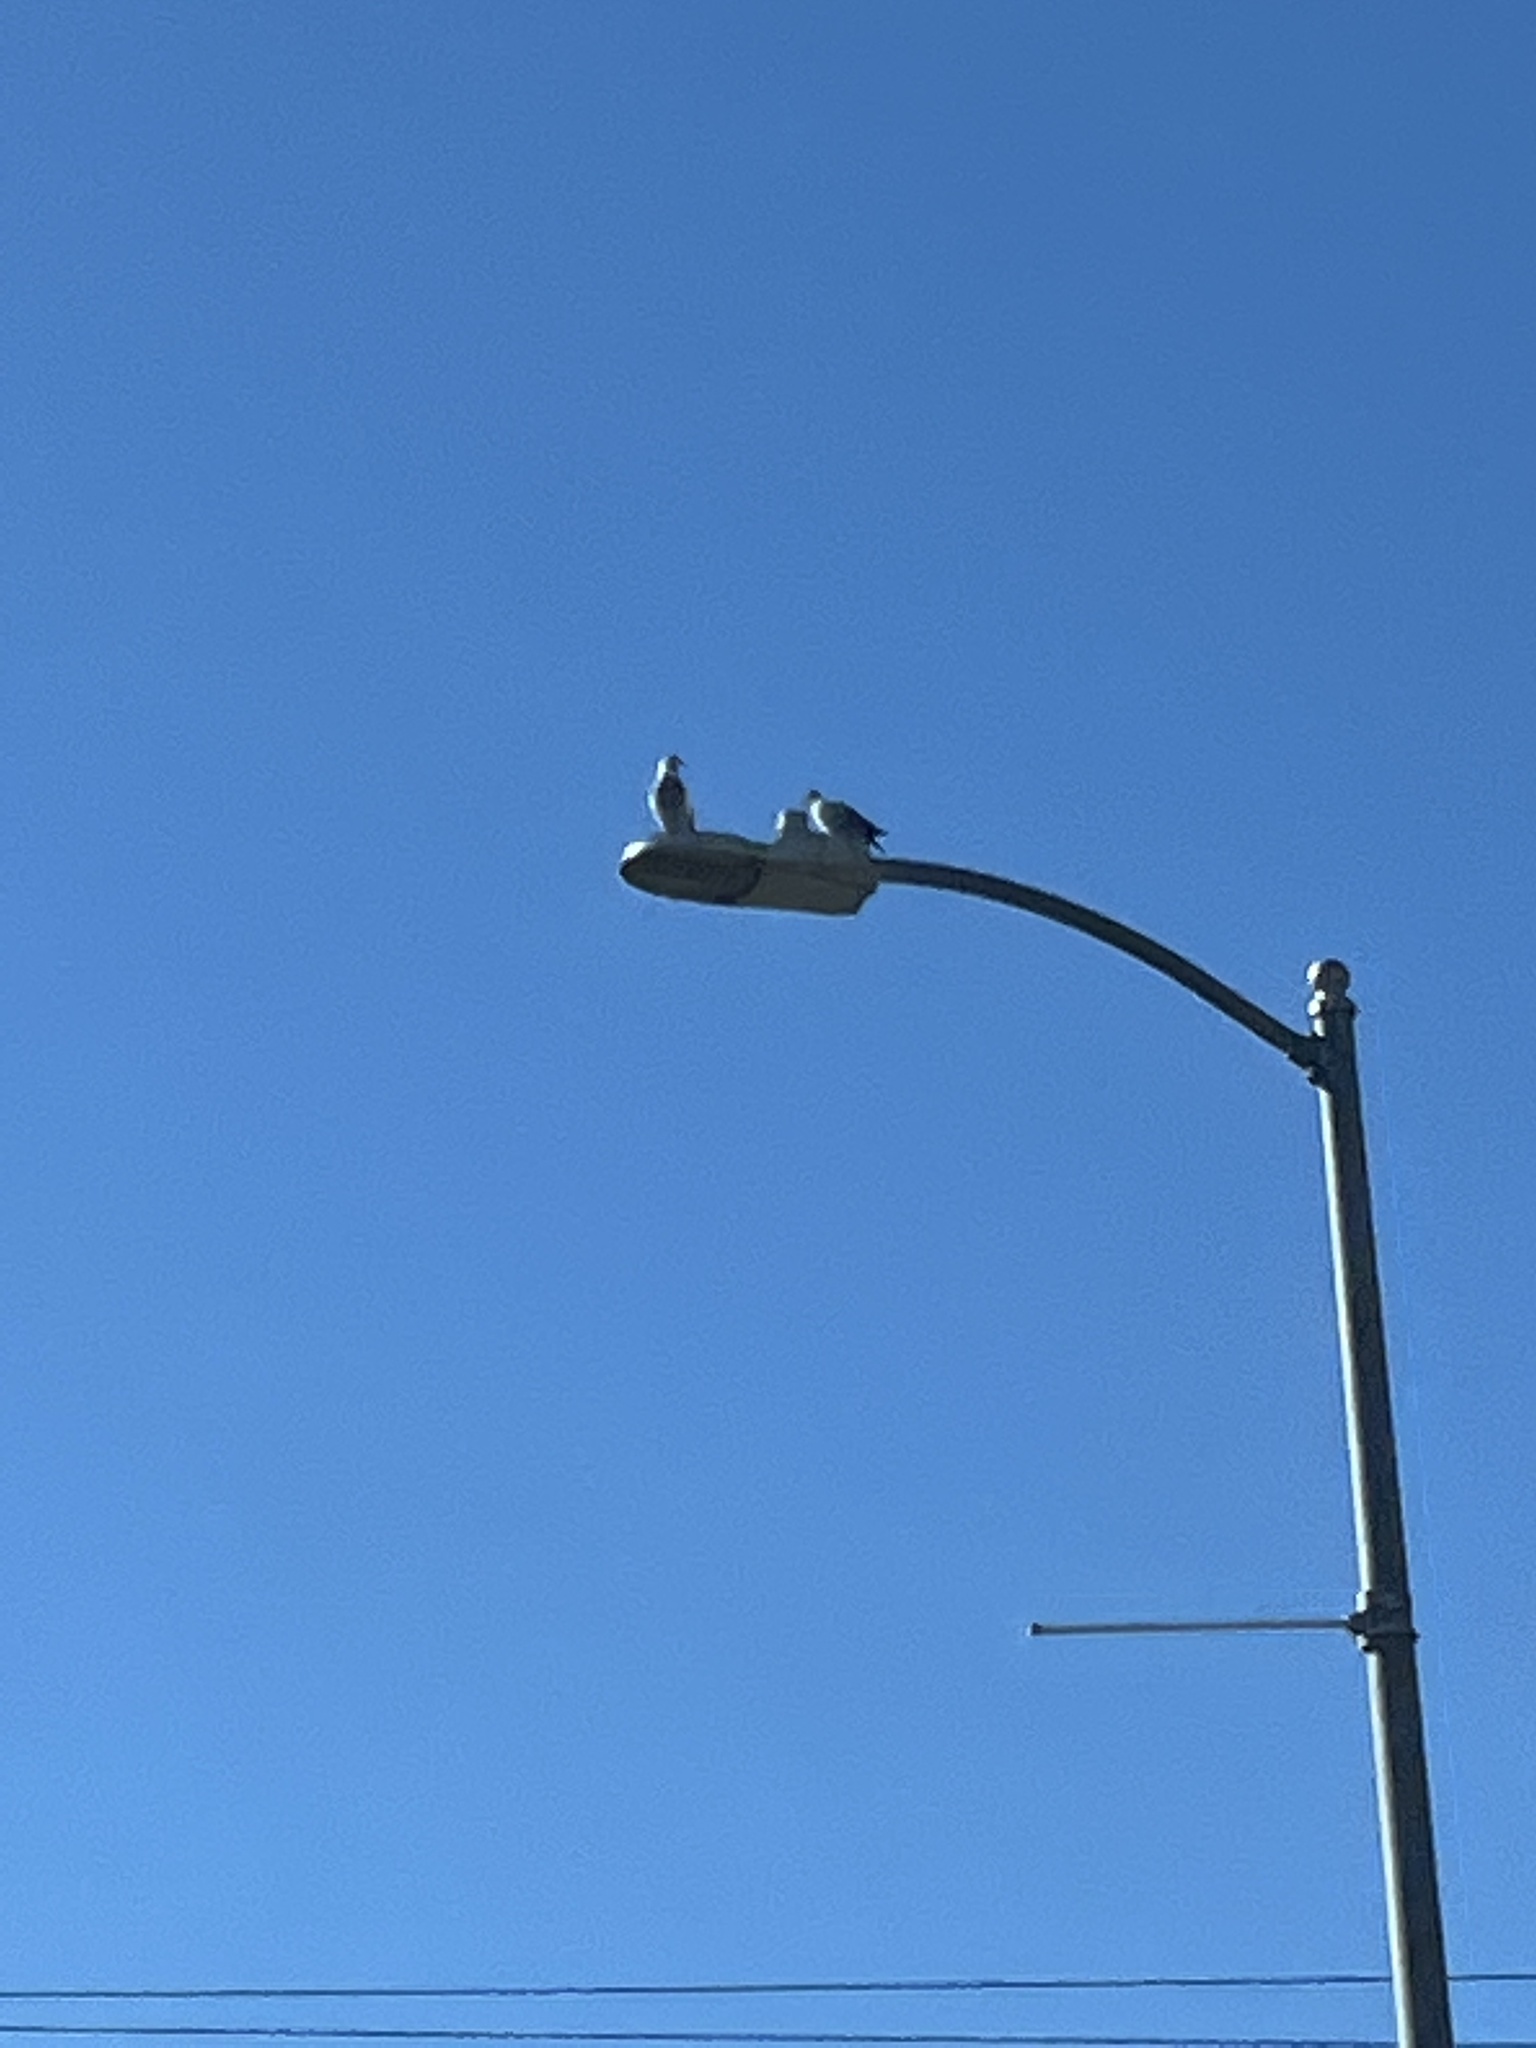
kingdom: Animalia
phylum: Chordata
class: Aves
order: Columbiformes
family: Columbidae
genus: Columba
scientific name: Columba livia
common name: Rock pigeon
